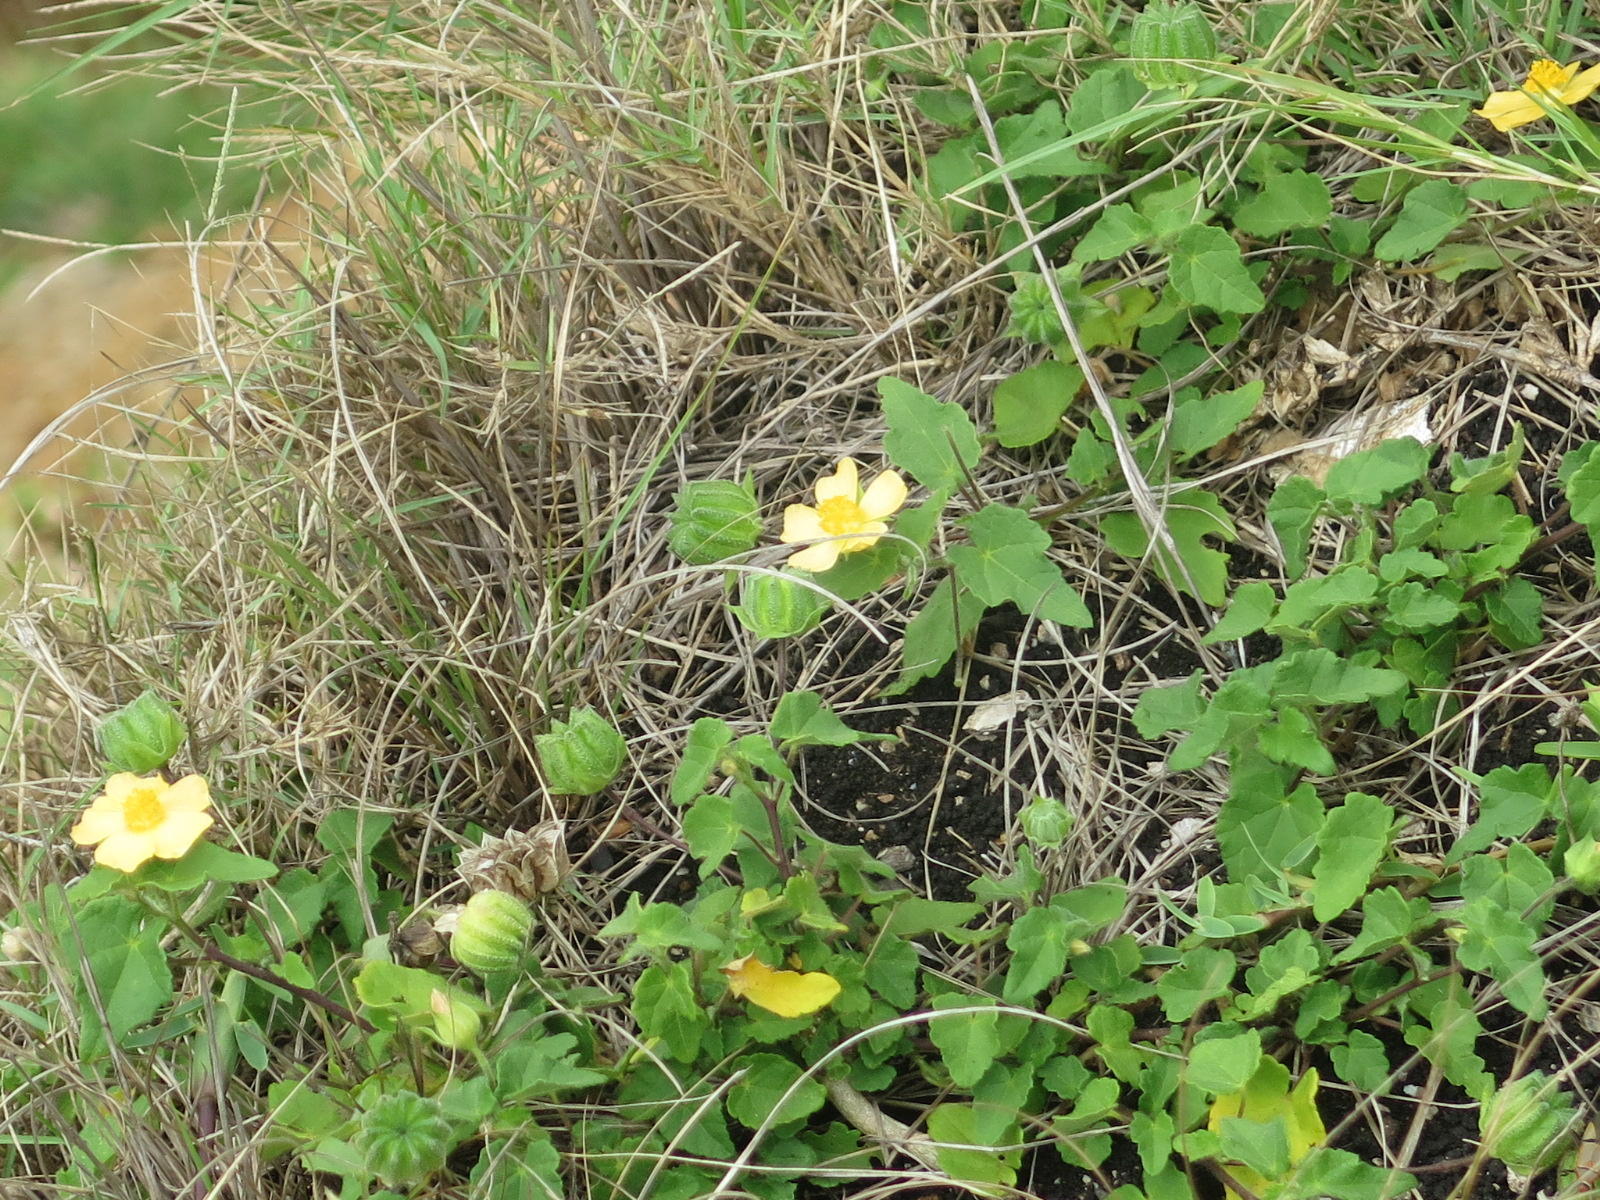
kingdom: Plantae
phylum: Tracheophyta
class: Magnoliopsida
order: Malvales
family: Malvaceae
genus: Abutilon
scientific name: Abutilon sonneratianum
